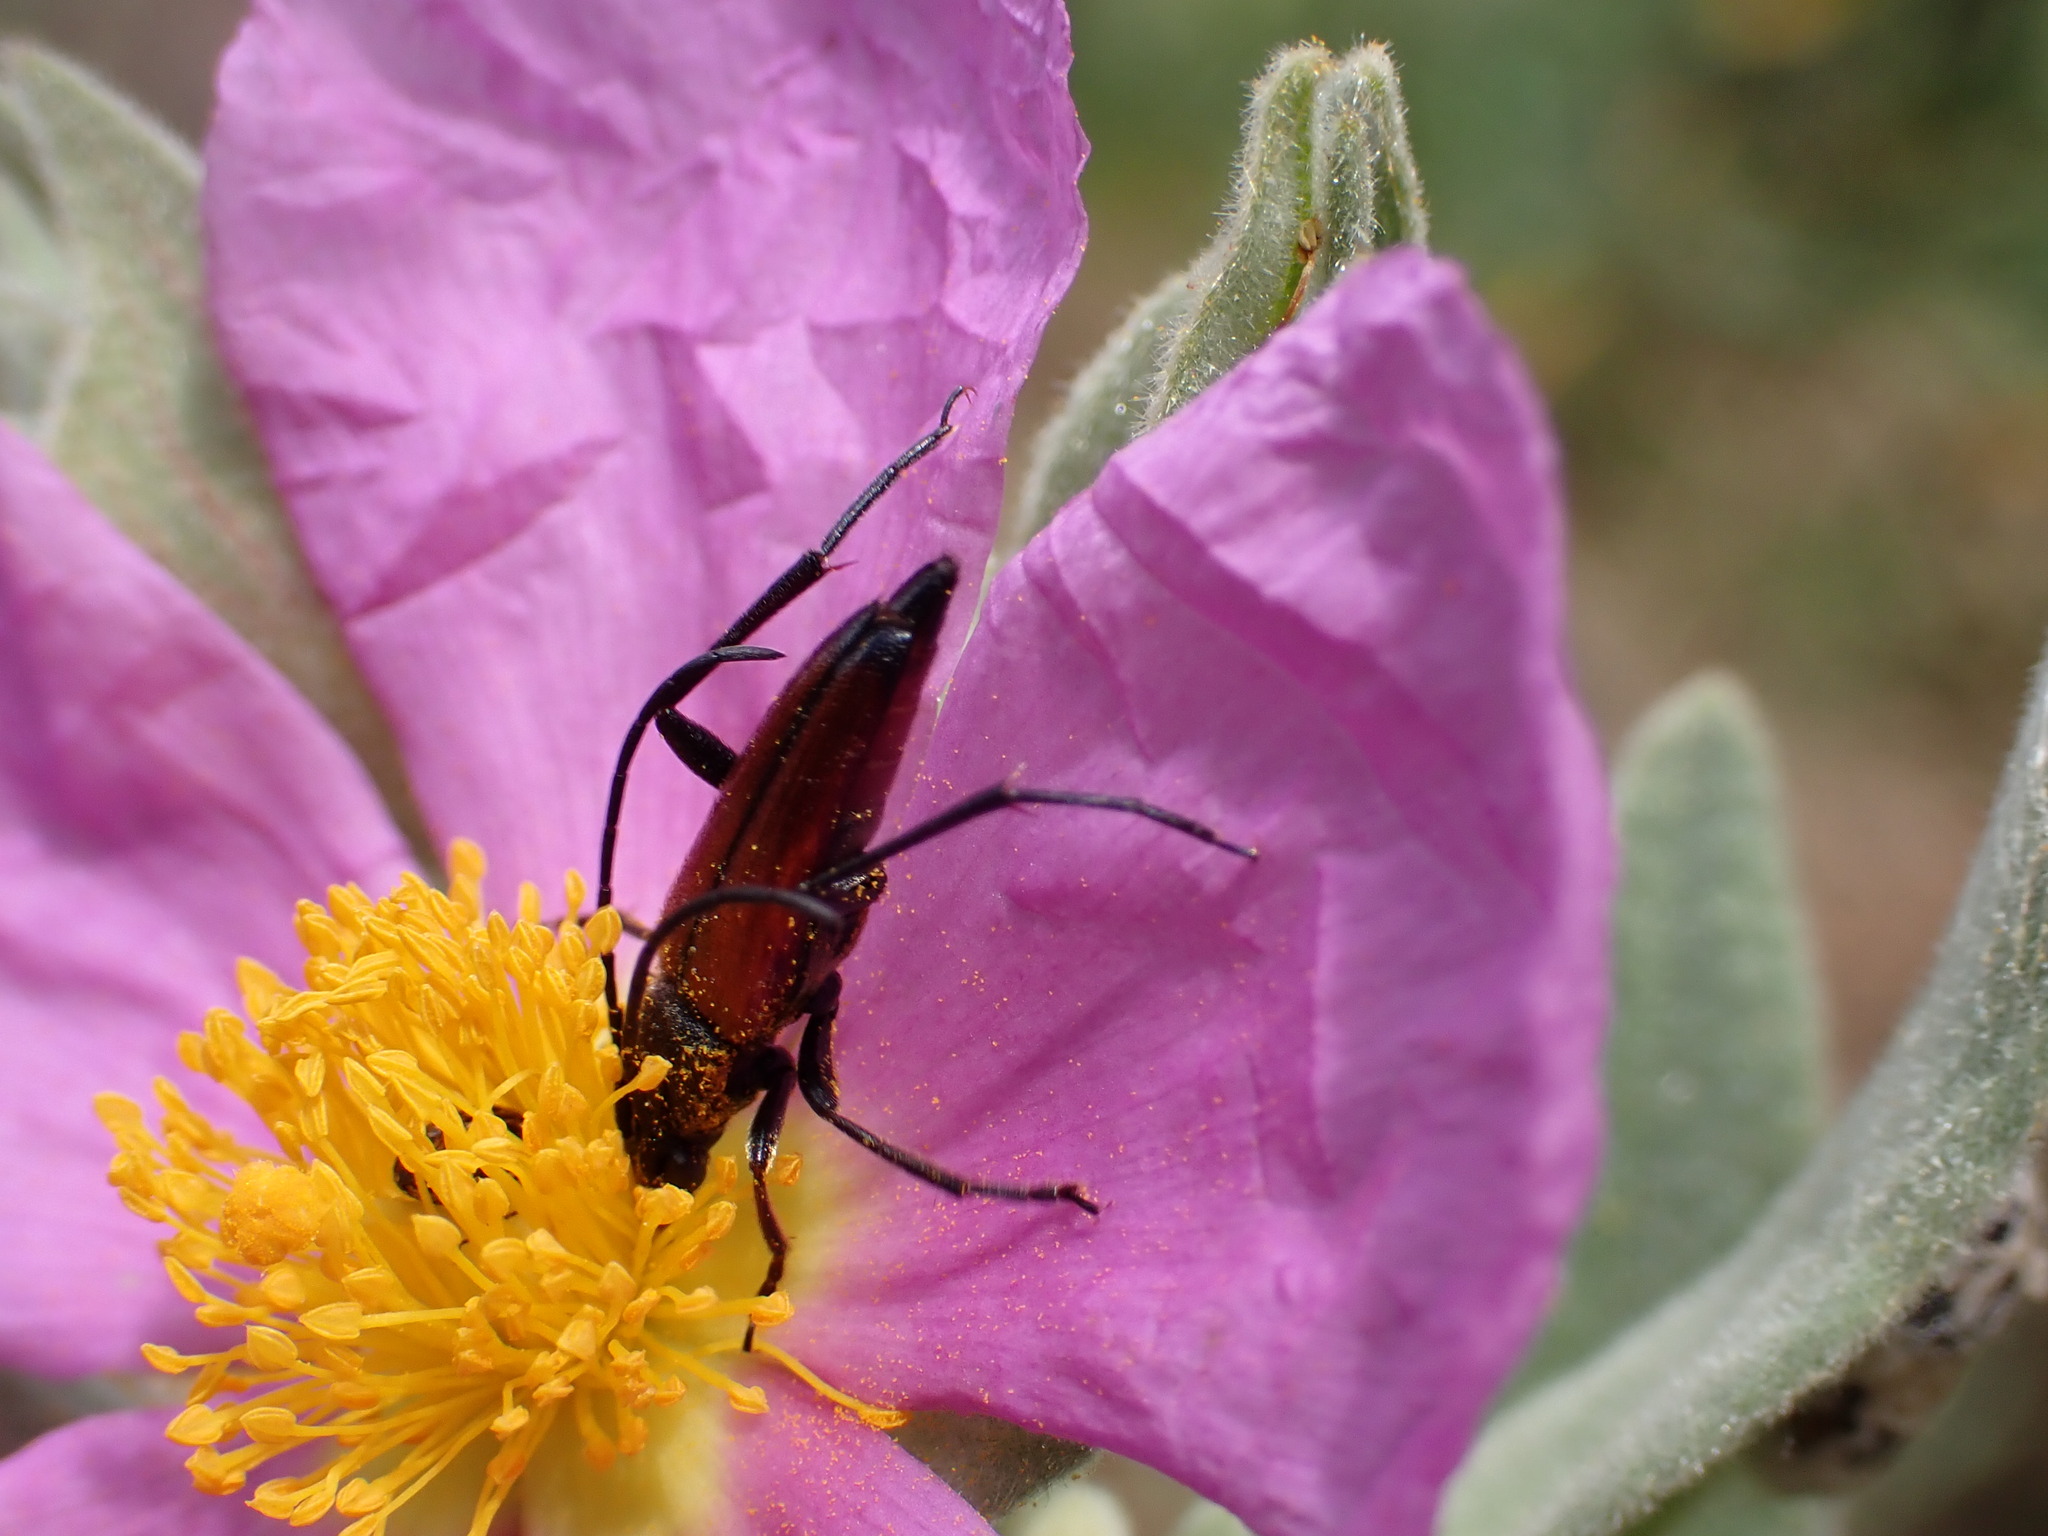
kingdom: Animalia
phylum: Arthropoda
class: Insecta
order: Coleoptera
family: Cerambycidae
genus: Stenurella
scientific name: Stenurella bifasciata
